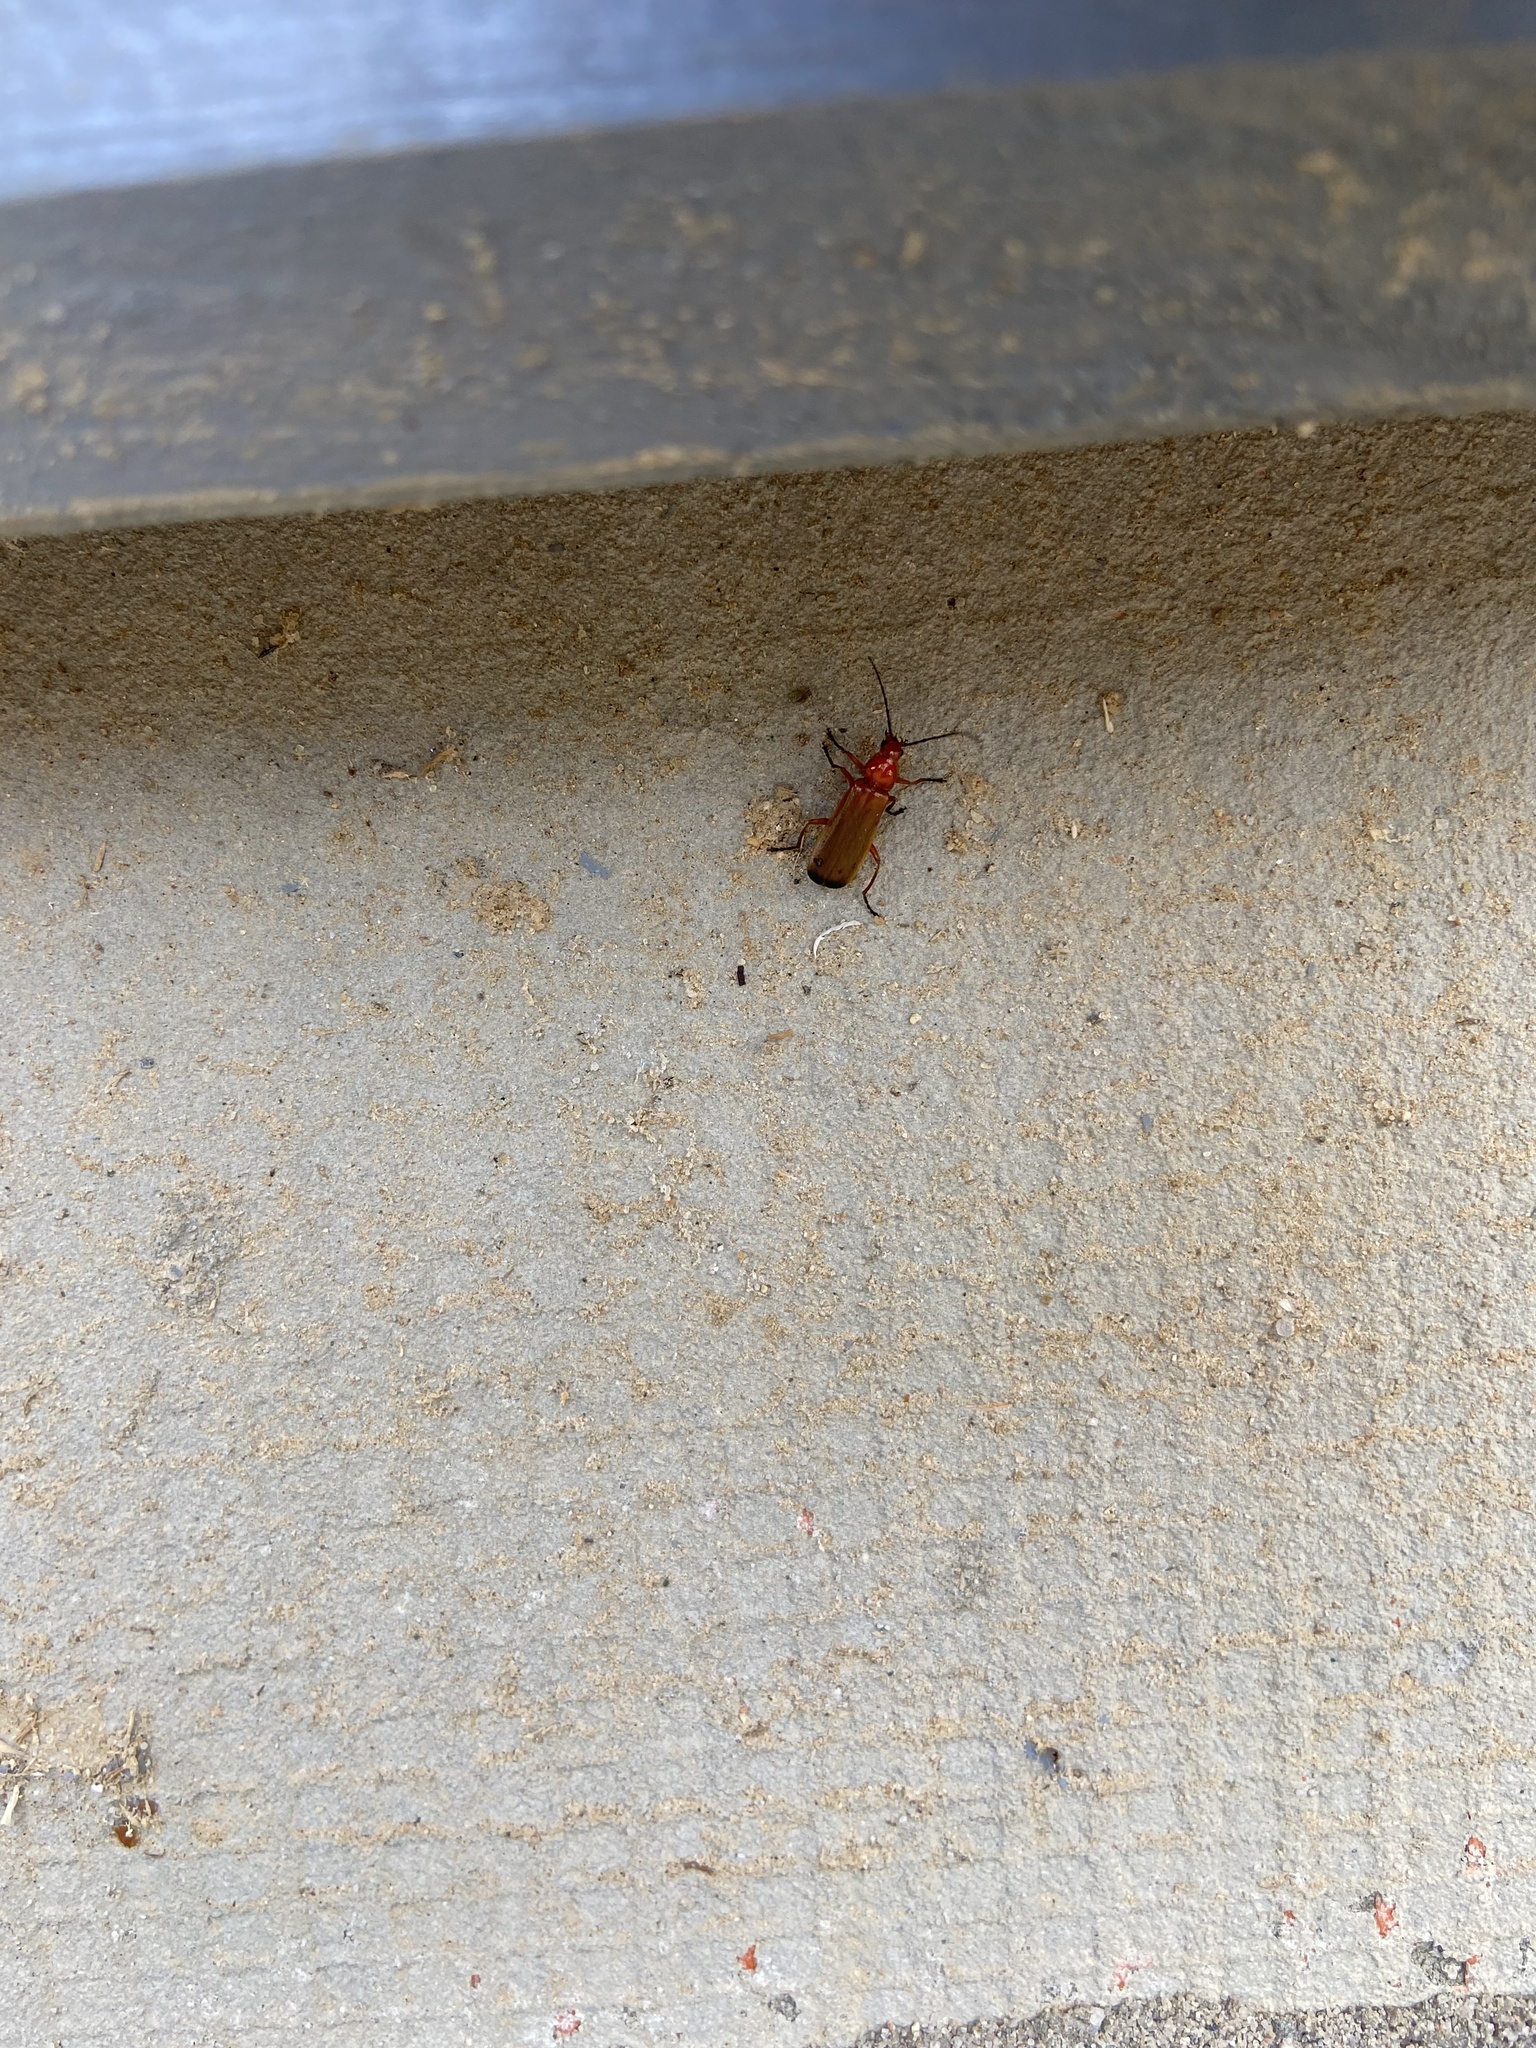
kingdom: Animalia
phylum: Arthropoda
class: Insecta
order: Coleoptera
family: Cantharidae
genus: Rhagonycha
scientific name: Rhagonycha fulva
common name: Common red soldier beetle
